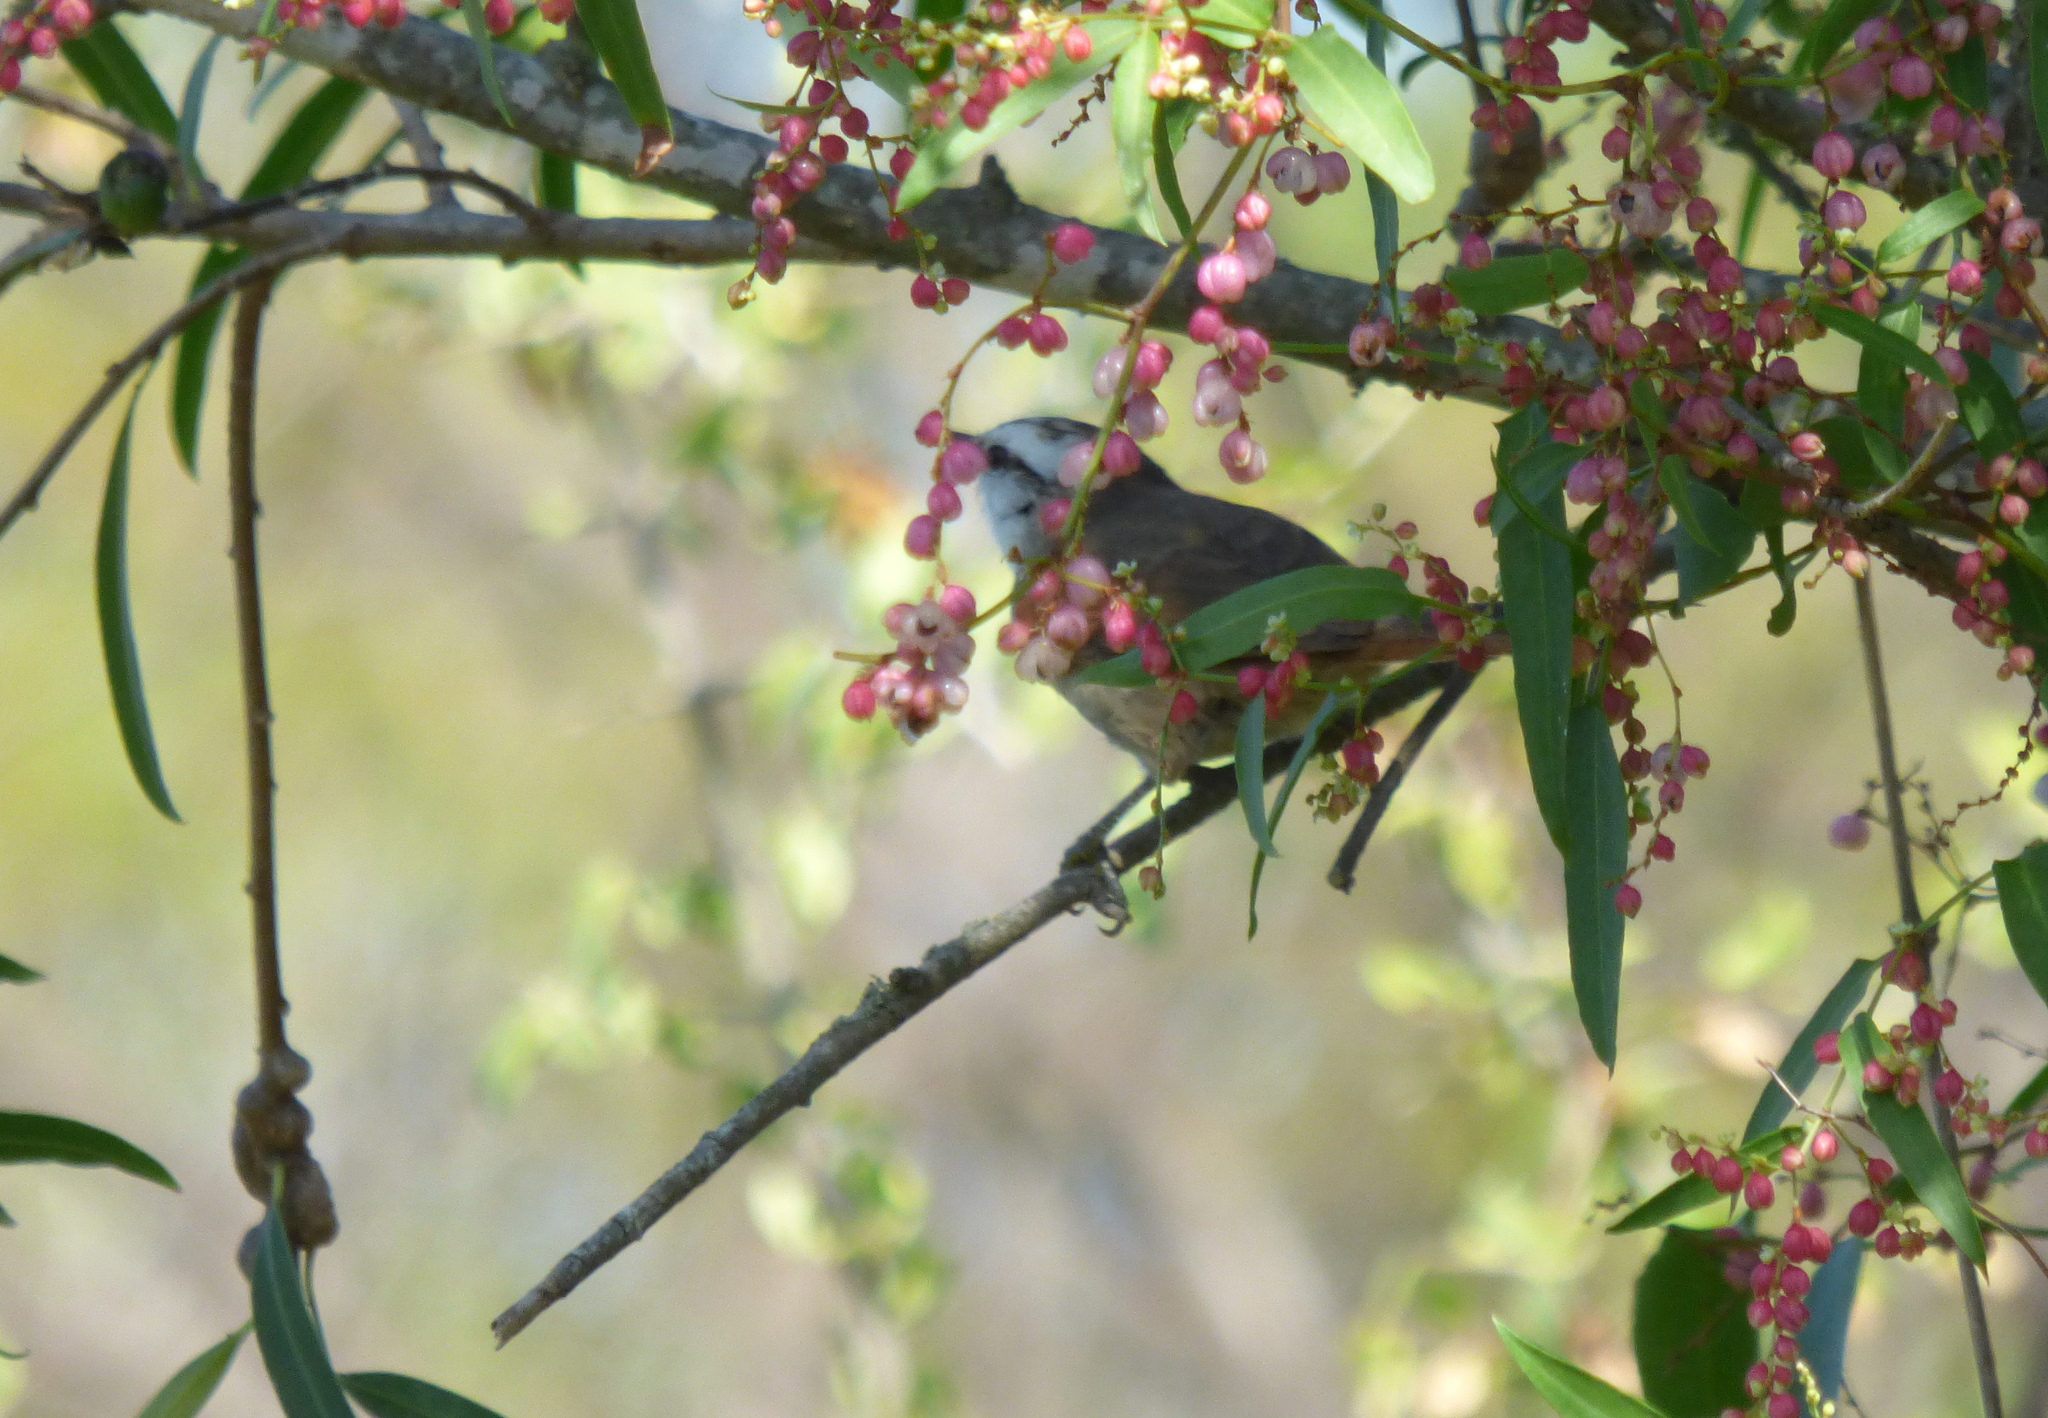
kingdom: Animalia
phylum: Chordata
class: Aves
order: Passeriformes
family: Furnariidae
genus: Cranioleuca
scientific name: Cranioleuca pyrrhophia
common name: Stripe-crowned spinetail
